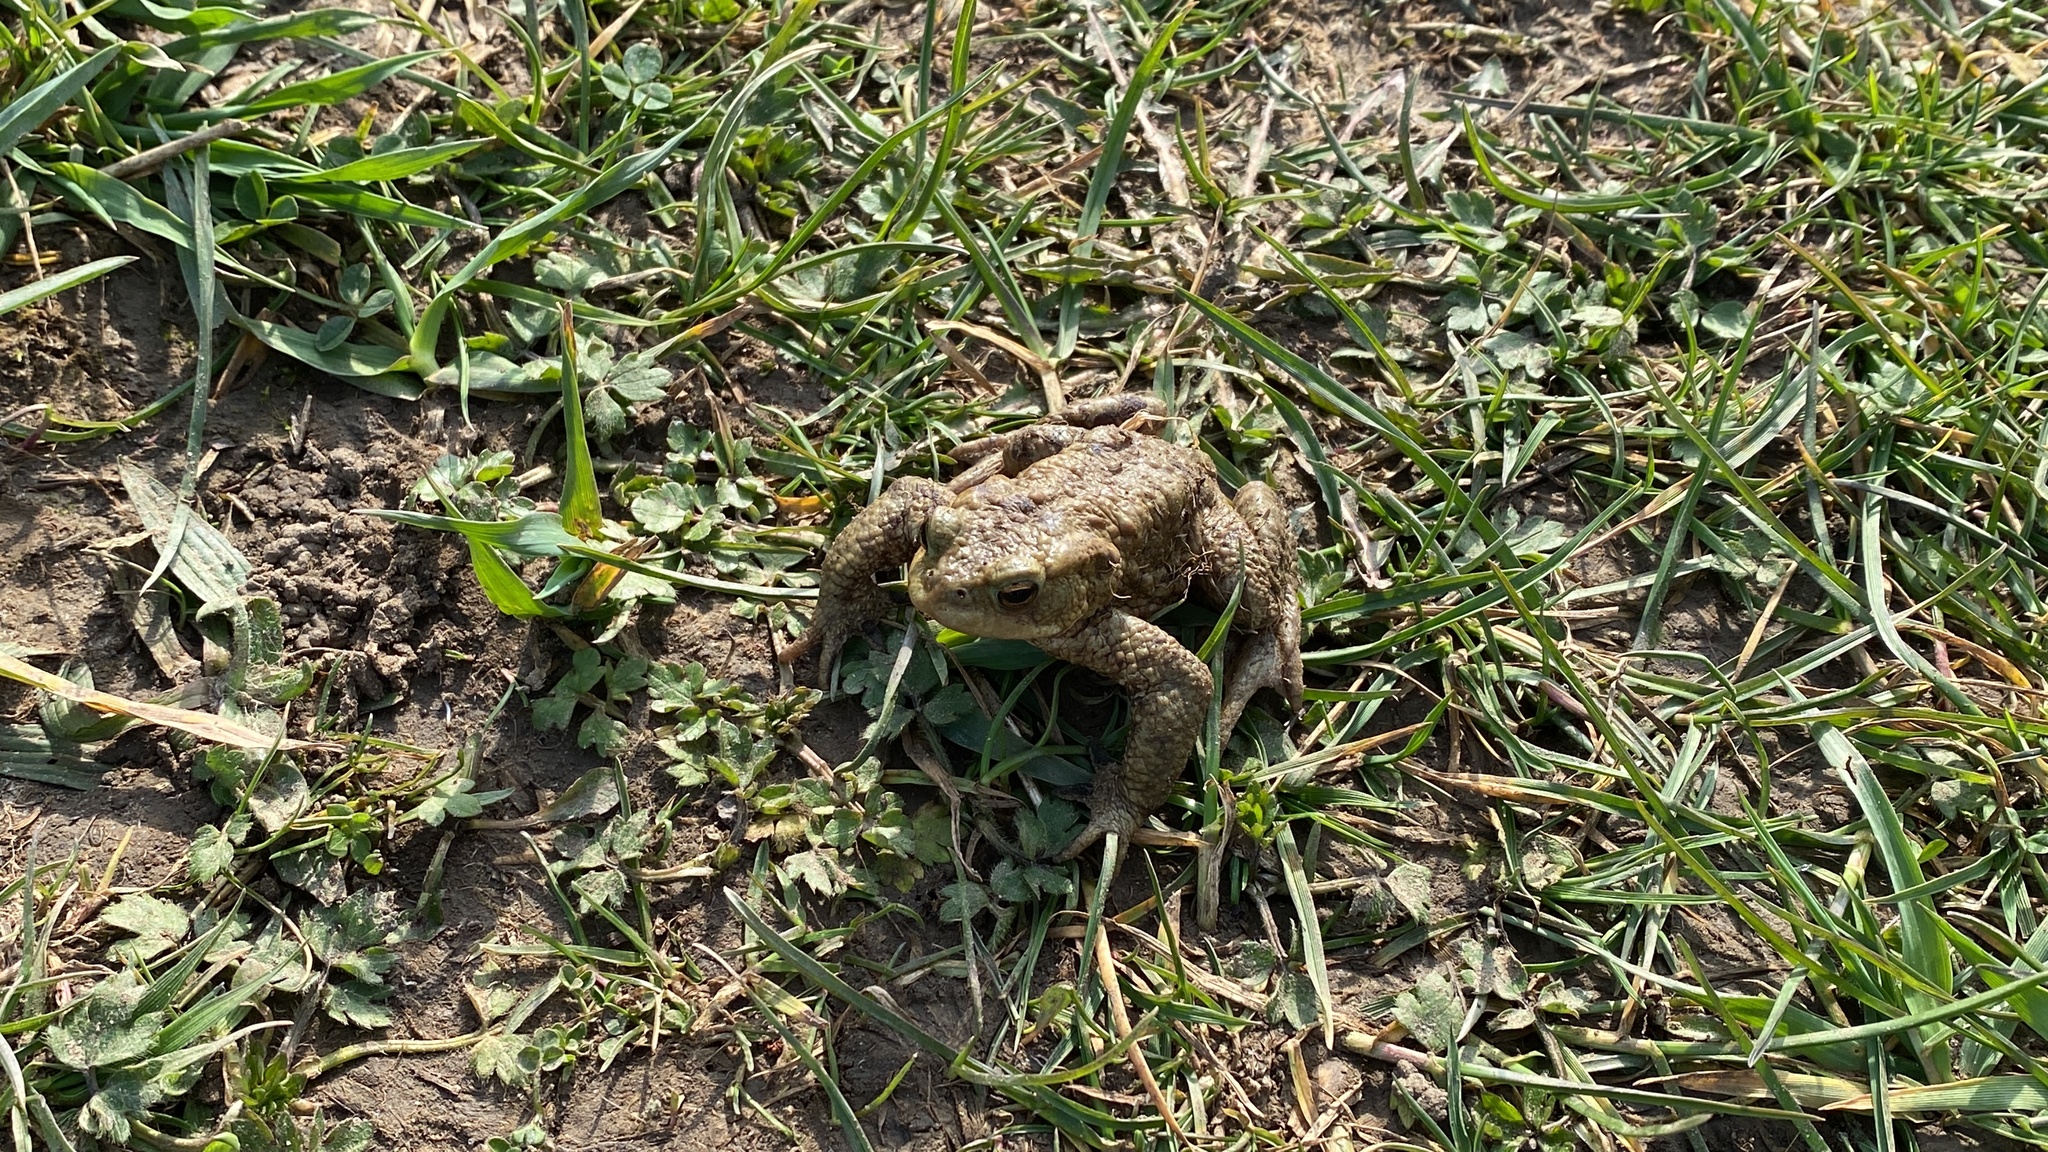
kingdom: Animalia
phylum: Chordata
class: Amphibia
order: Anura
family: Bufonidae
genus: Bufo
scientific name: Bufo bufo
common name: Common toad
